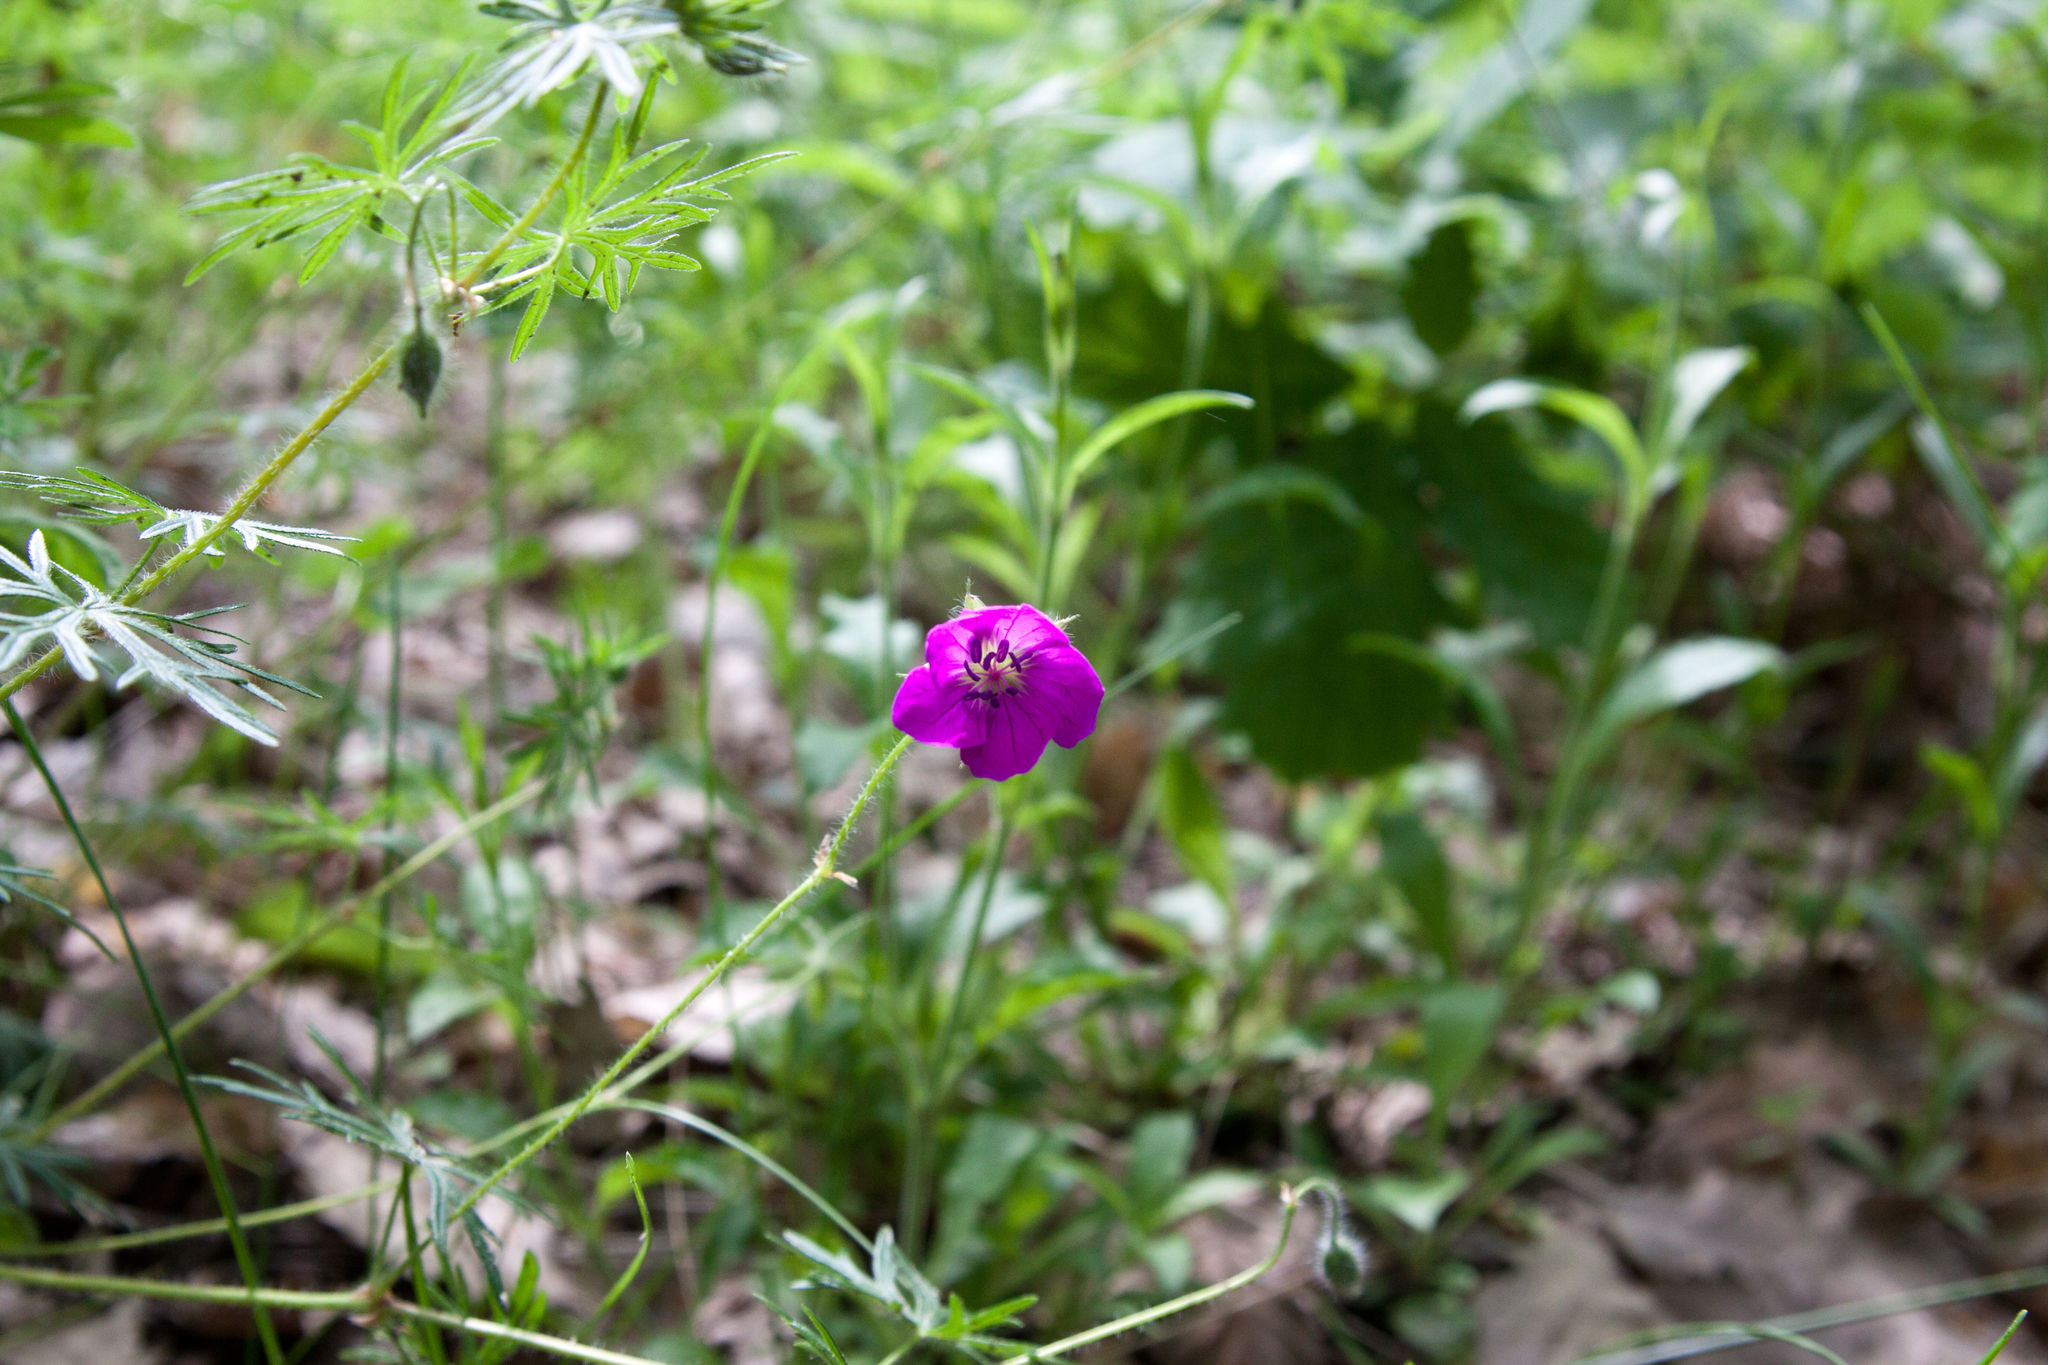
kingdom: Plantae
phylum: Tracheophyta
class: Magnoliopsida
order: Geraniales
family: Geraniaceae
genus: Geranium
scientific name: Geranium sanguineum
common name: Bloody crane's-bill
